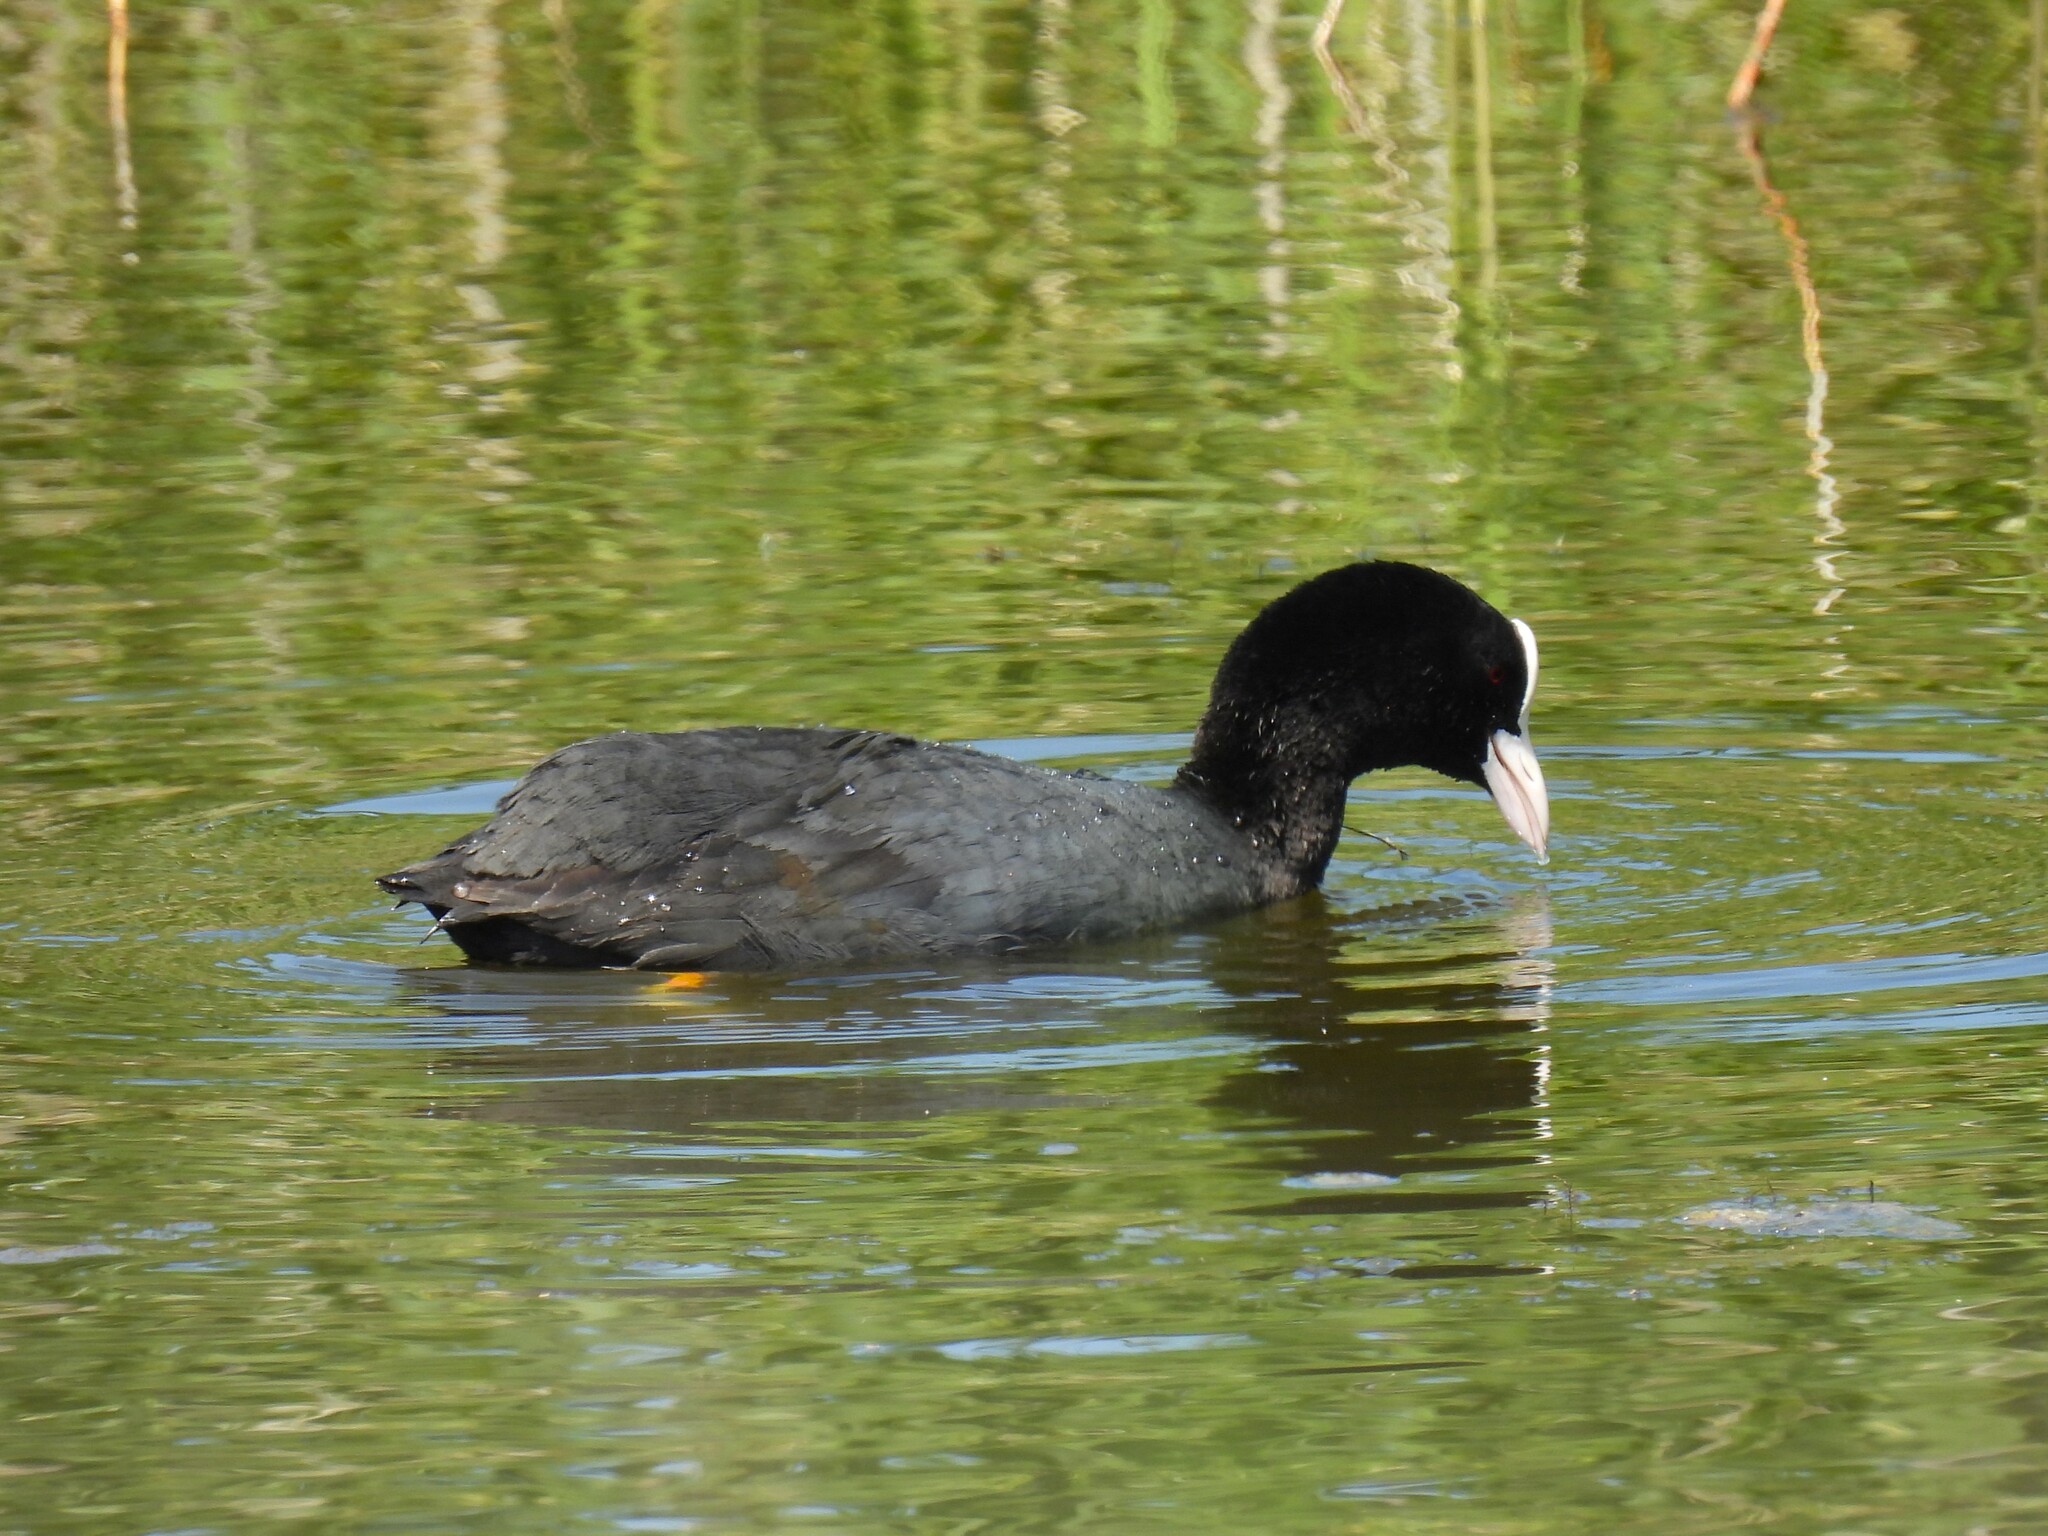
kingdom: Animalia
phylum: Chordata
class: Aves
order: Gruiformes
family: Rallidae
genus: Fulica
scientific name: Fulica atra
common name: Eurasian coot
